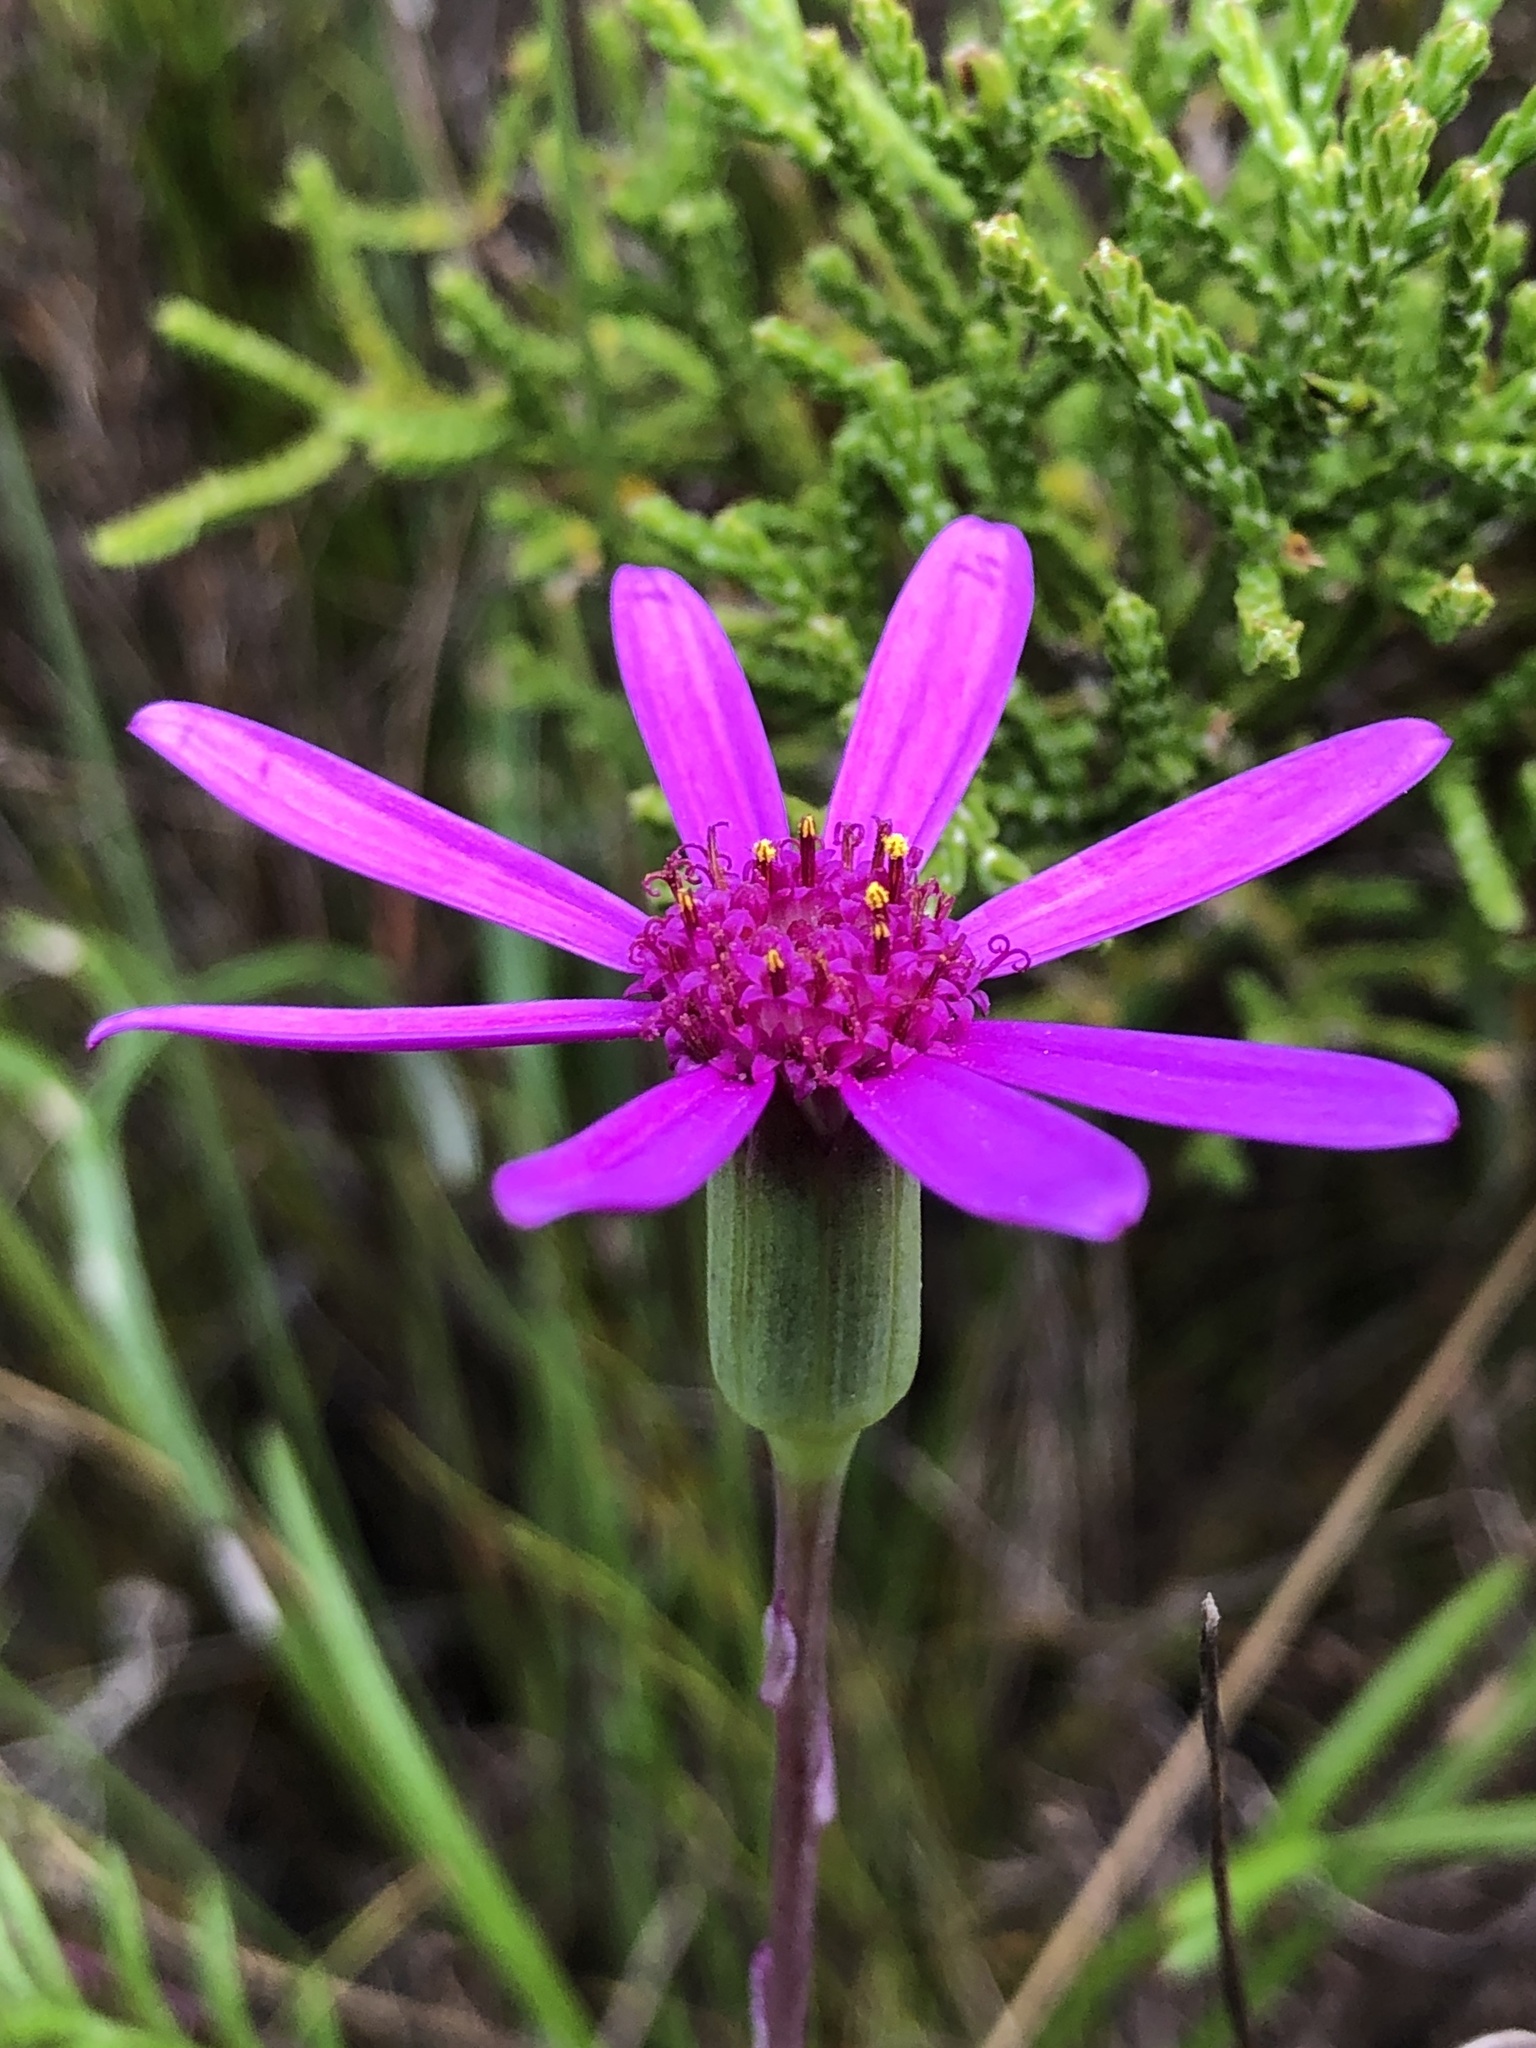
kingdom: Plantae
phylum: Tracheophyta
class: Magnoliopsida
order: Asterales
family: Asteraceae
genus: Senecio
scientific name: Senecio cymbalariifolius
